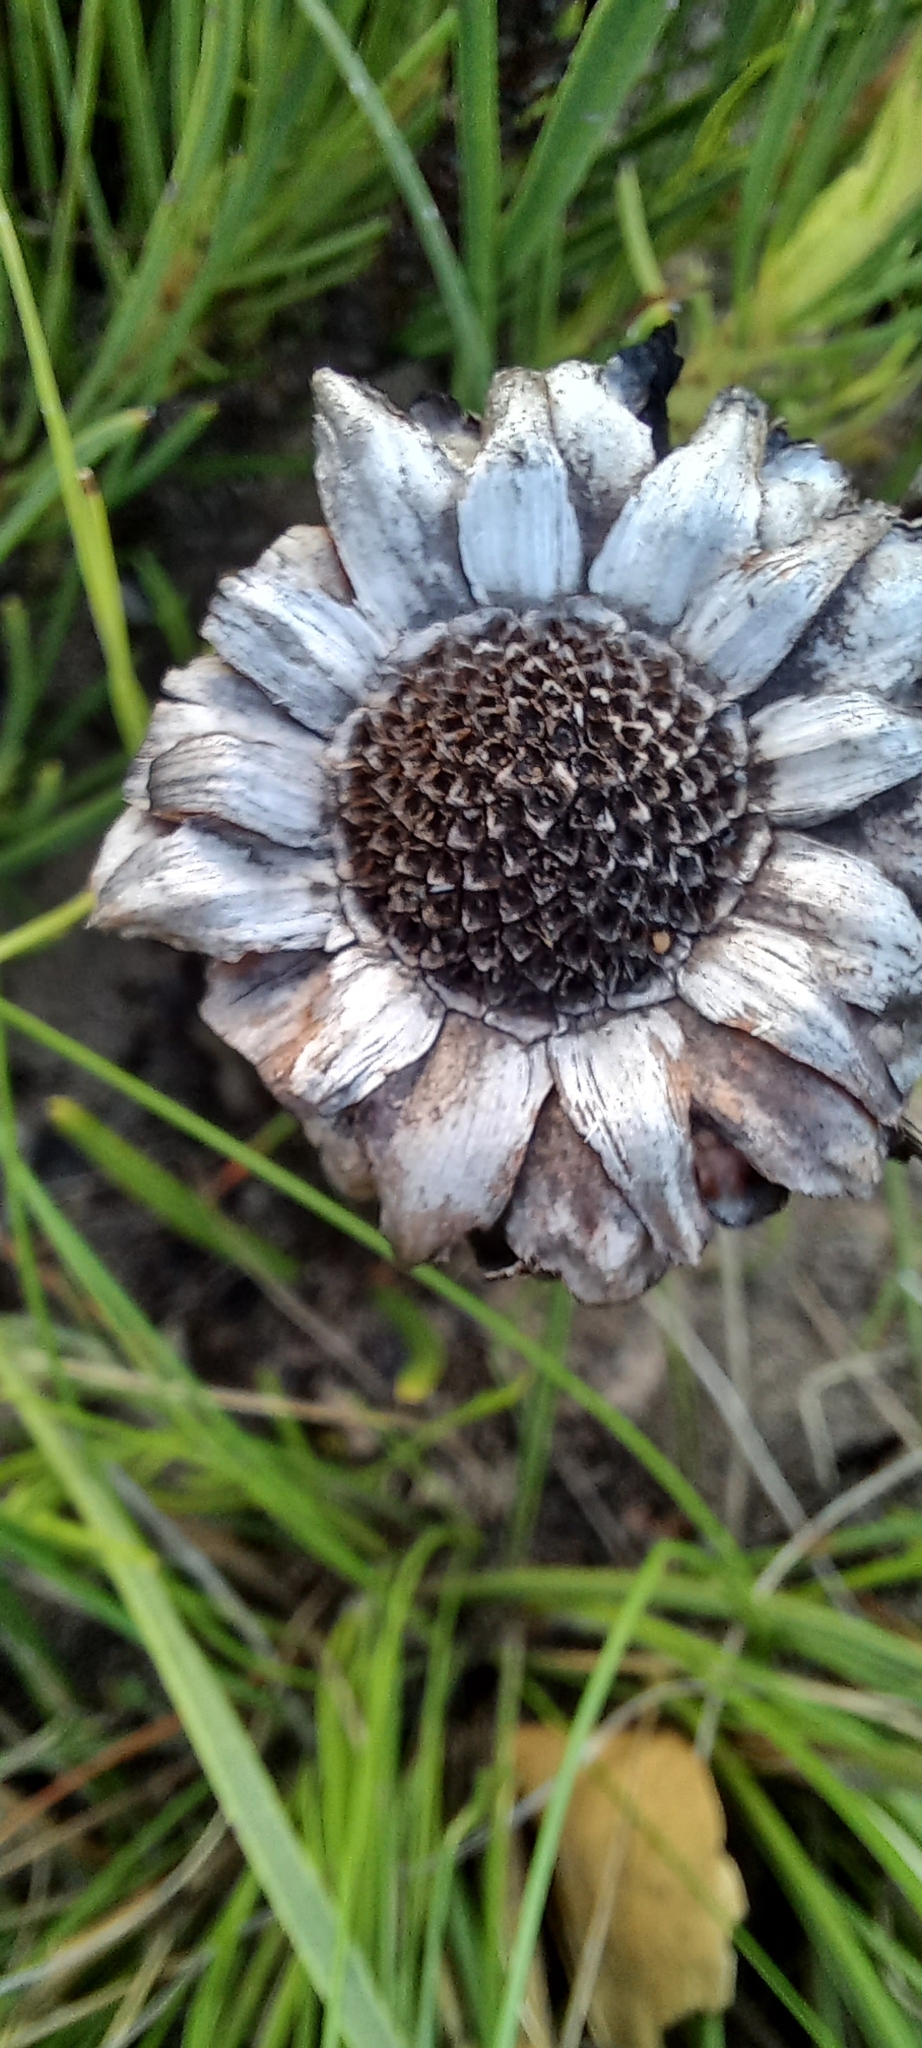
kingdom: Plantae
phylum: Tracheophyta
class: Magnoliopsida
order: Proteales
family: Proteaceae
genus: Protea
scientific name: Protea angustata
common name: Kleinmond sugarbush
